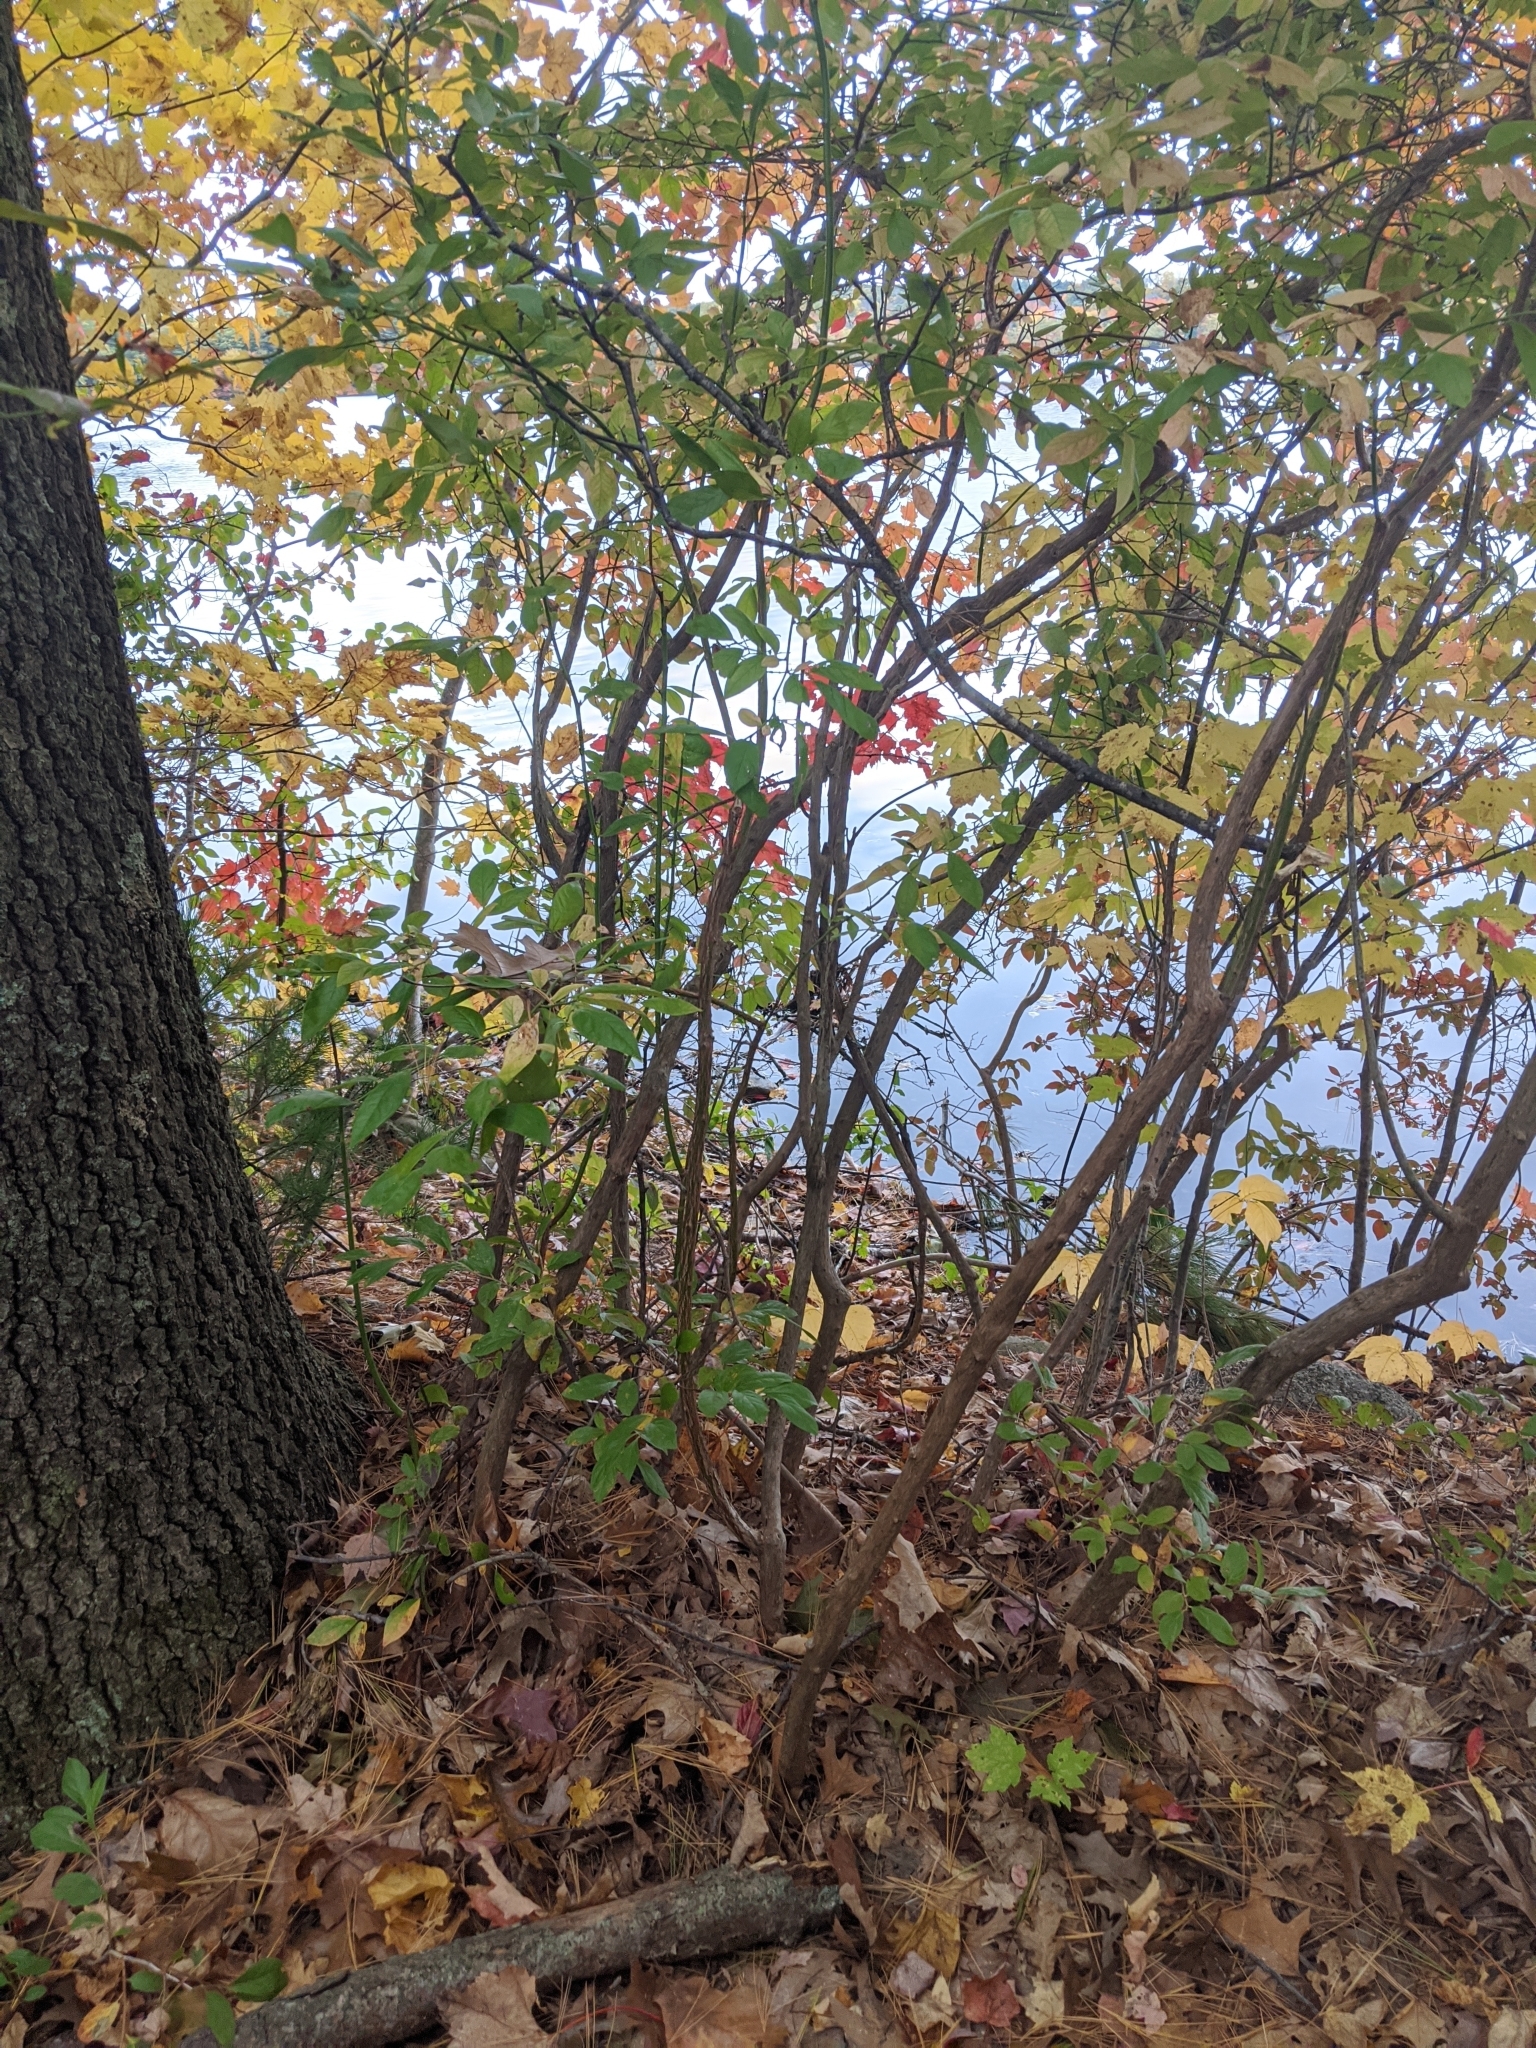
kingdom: Plantae
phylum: Tracheophyta
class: Magnoliopsida
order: Laurales
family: Lauraceae
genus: Lindera
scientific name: Lindera benzoin
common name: Spicebush
